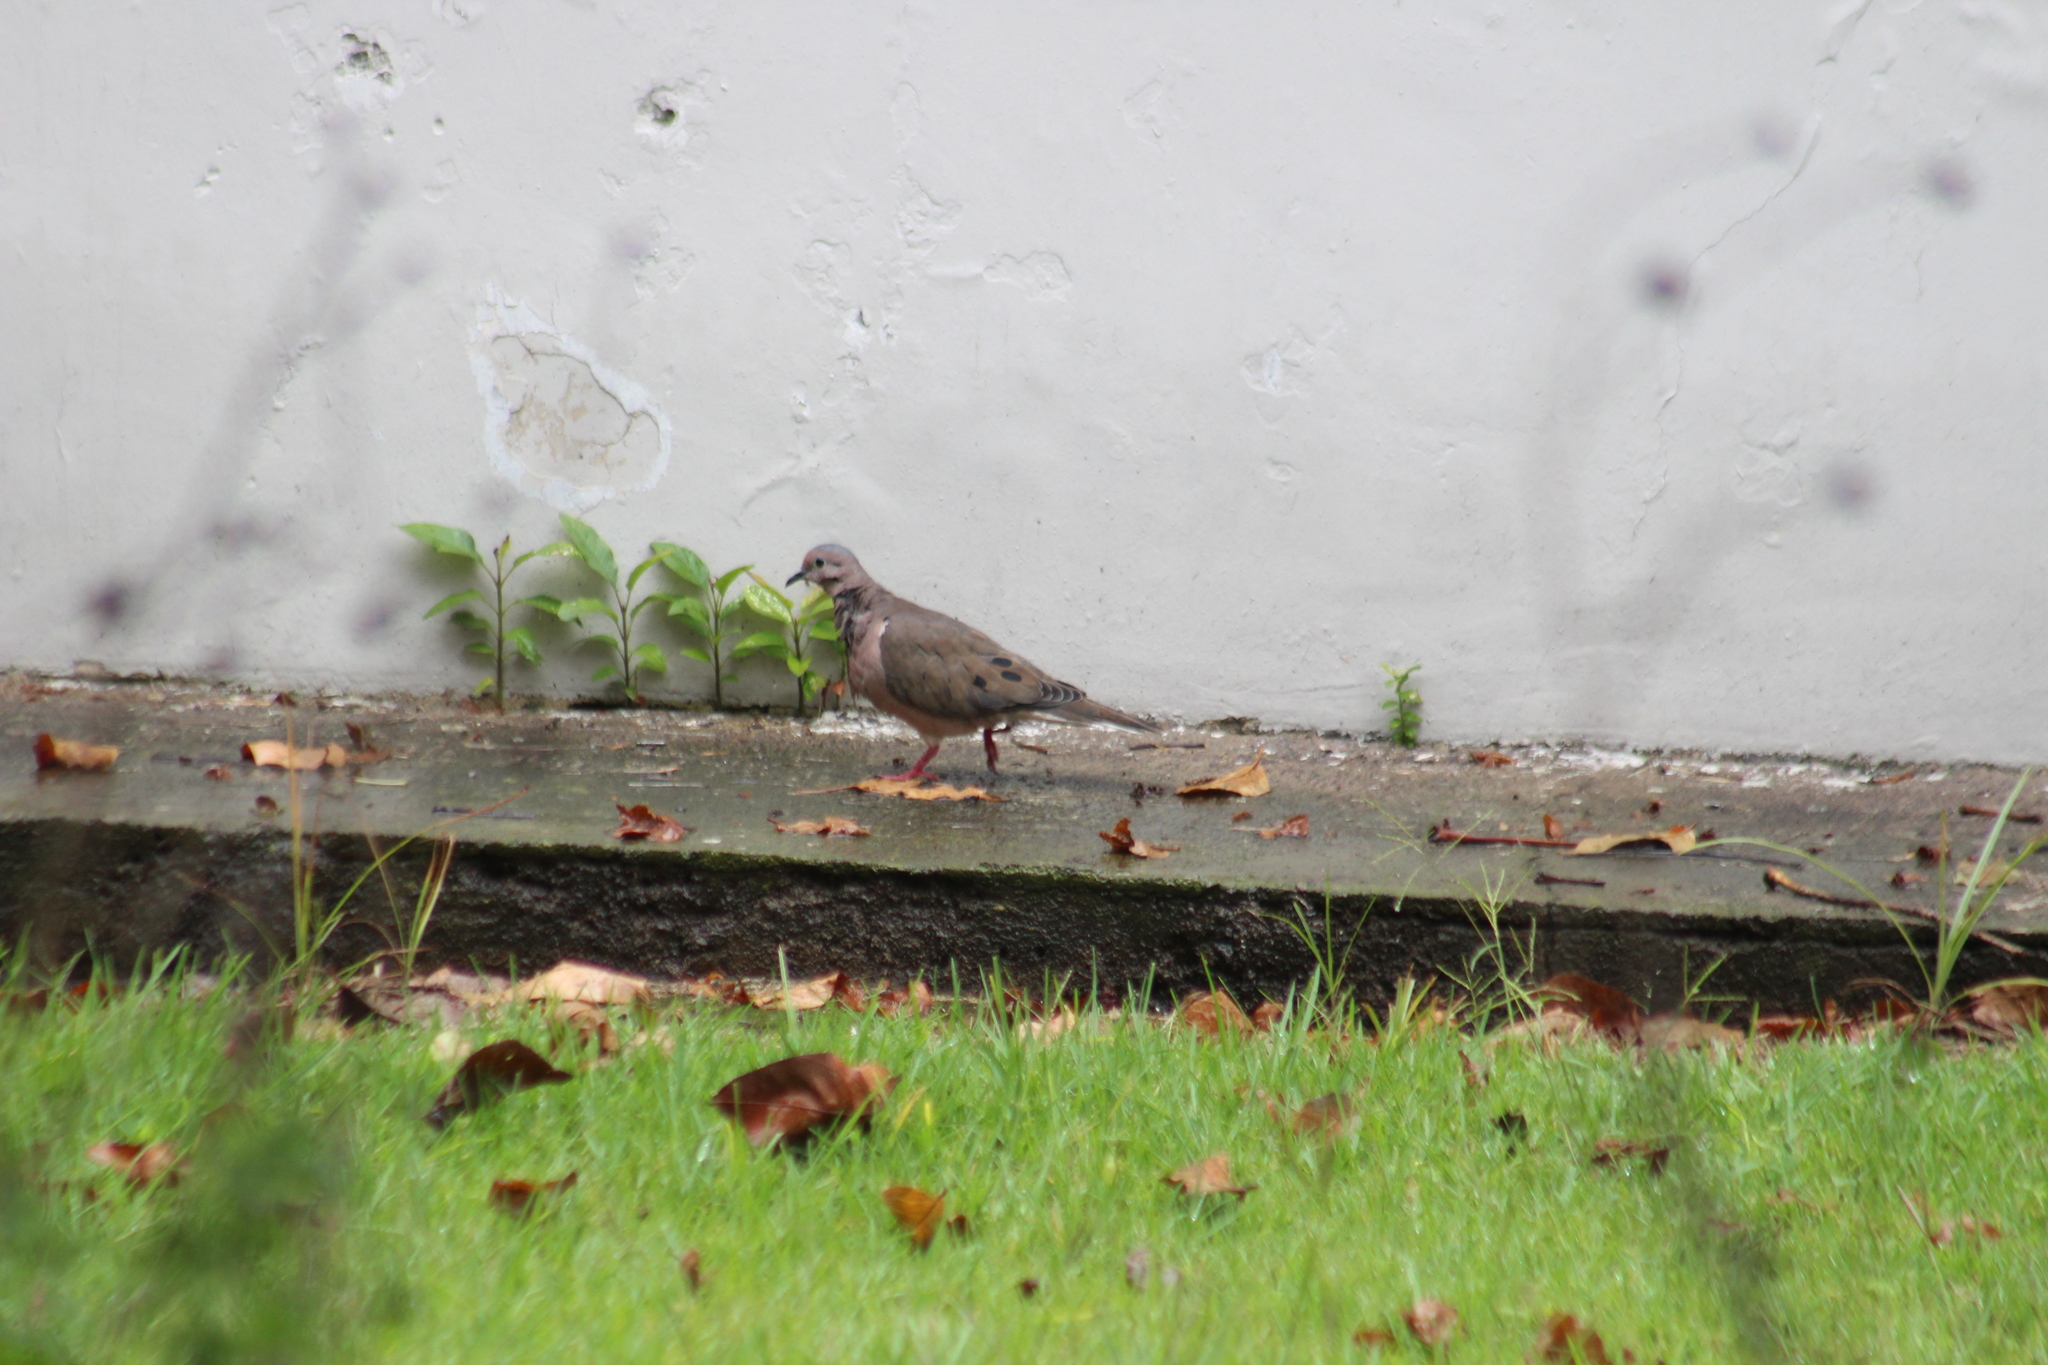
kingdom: Animalia
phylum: Chordata
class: Aves
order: Columbiformes
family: Columbidae
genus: Zenaida
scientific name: Zenaida auriculata
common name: Eared dove
